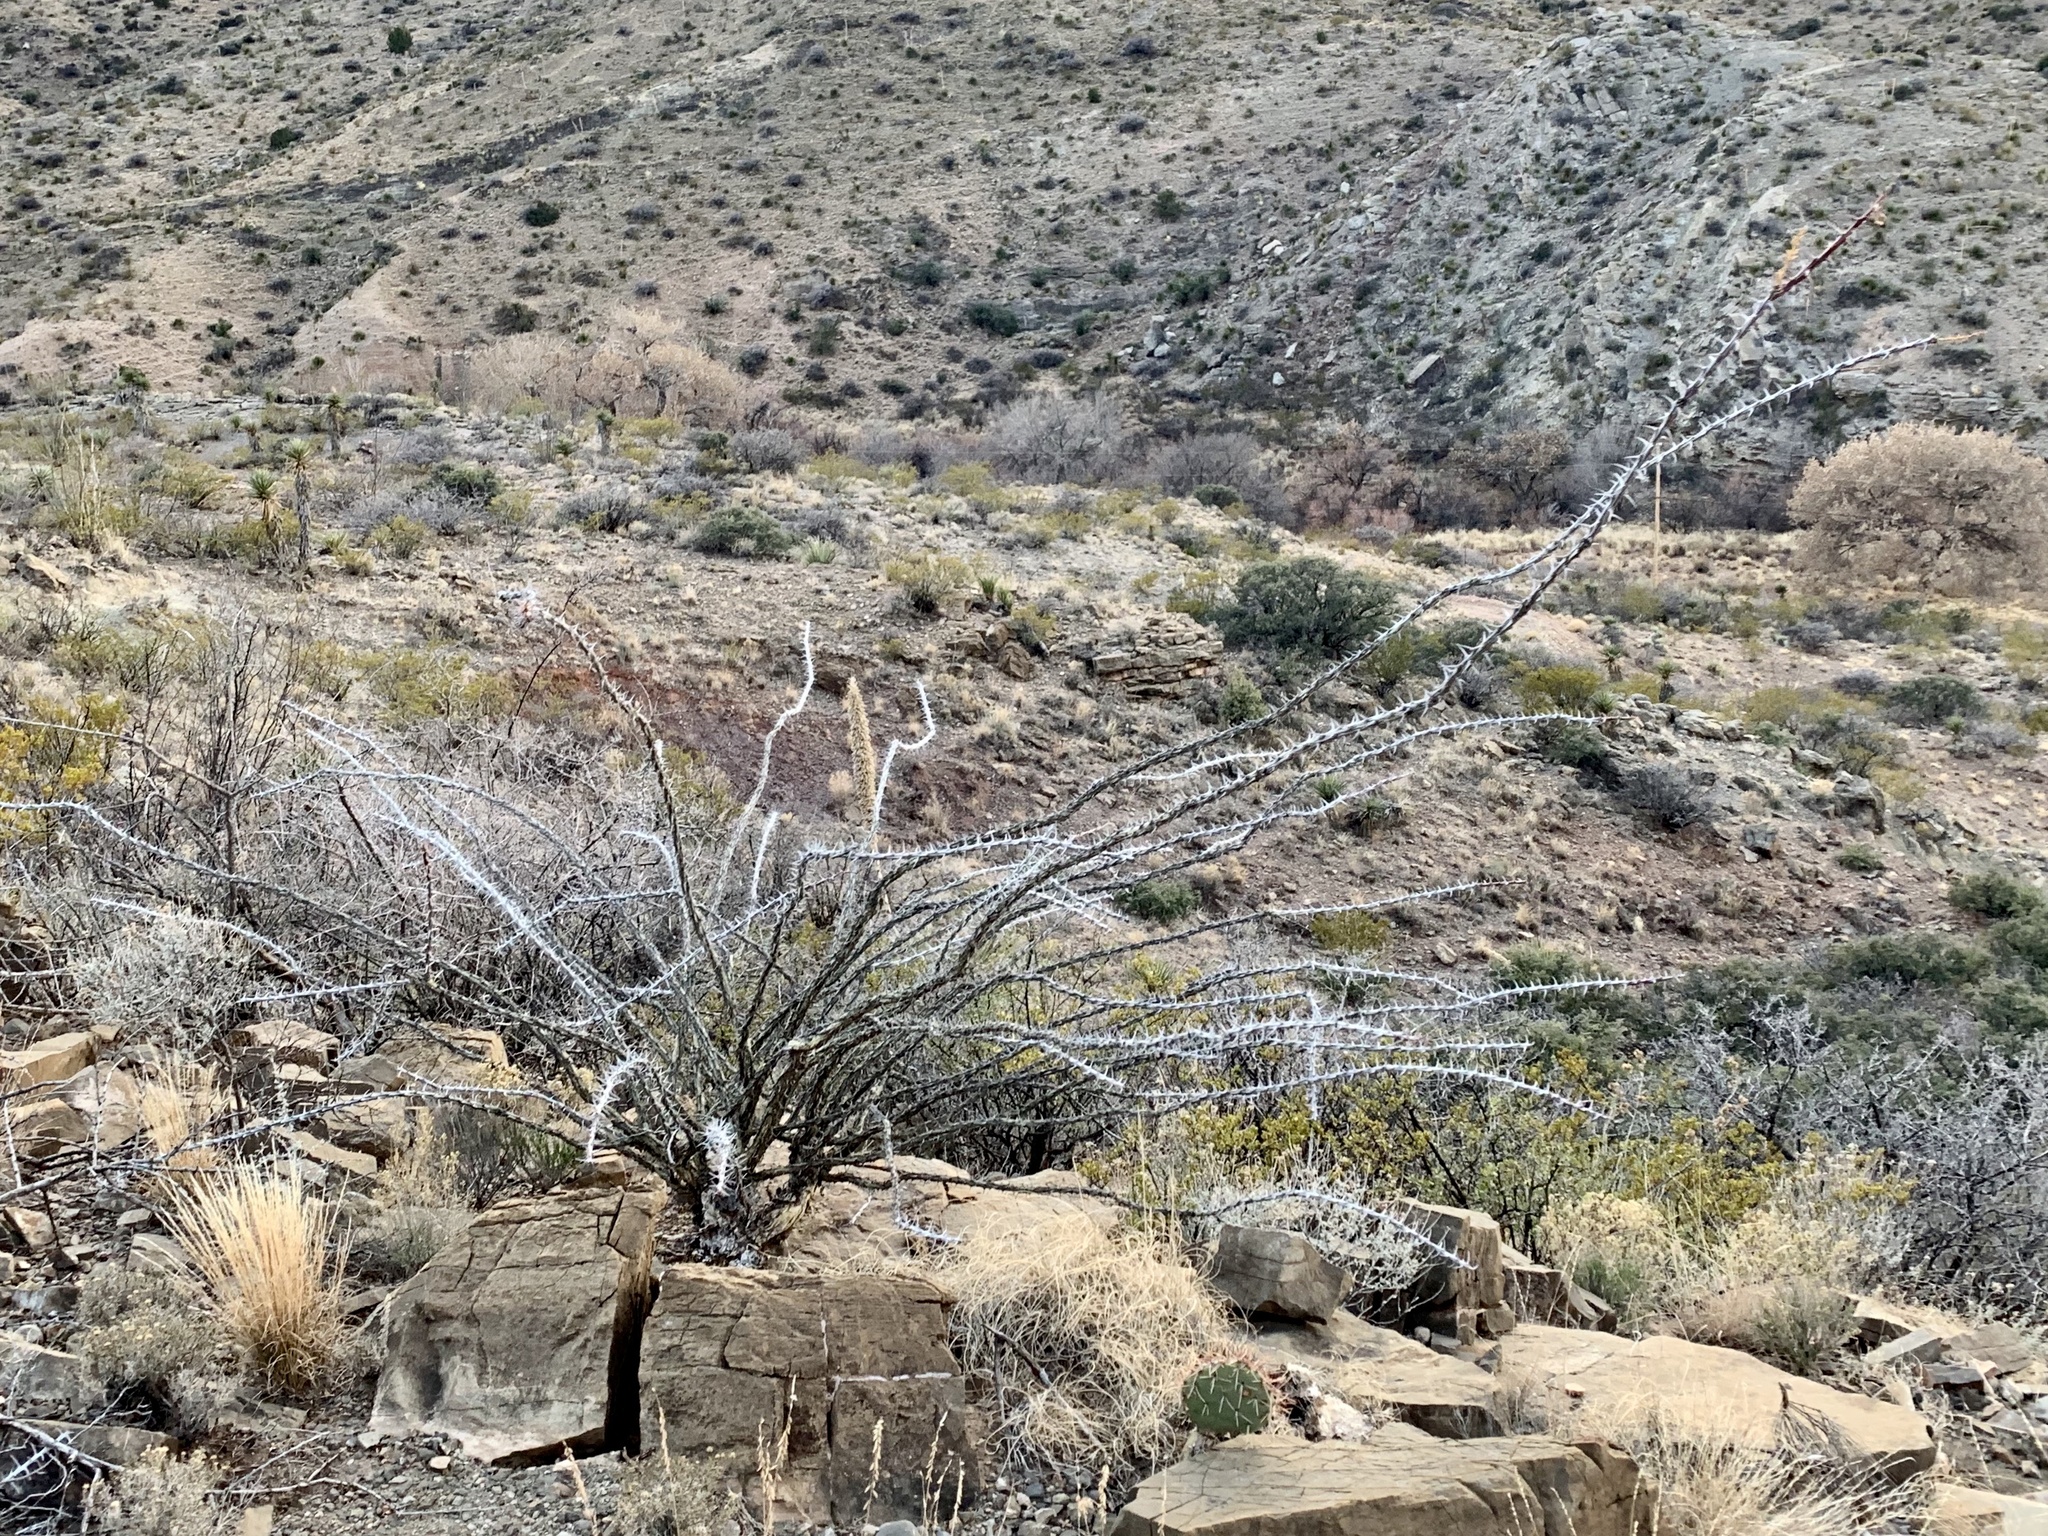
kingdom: Plantae
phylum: Tracheophyta
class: Magnoliopsida
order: Ericales
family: Fouquieriaceae
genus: Fouquieria
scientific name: Fouquieria splendens
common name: Vine-cactus
